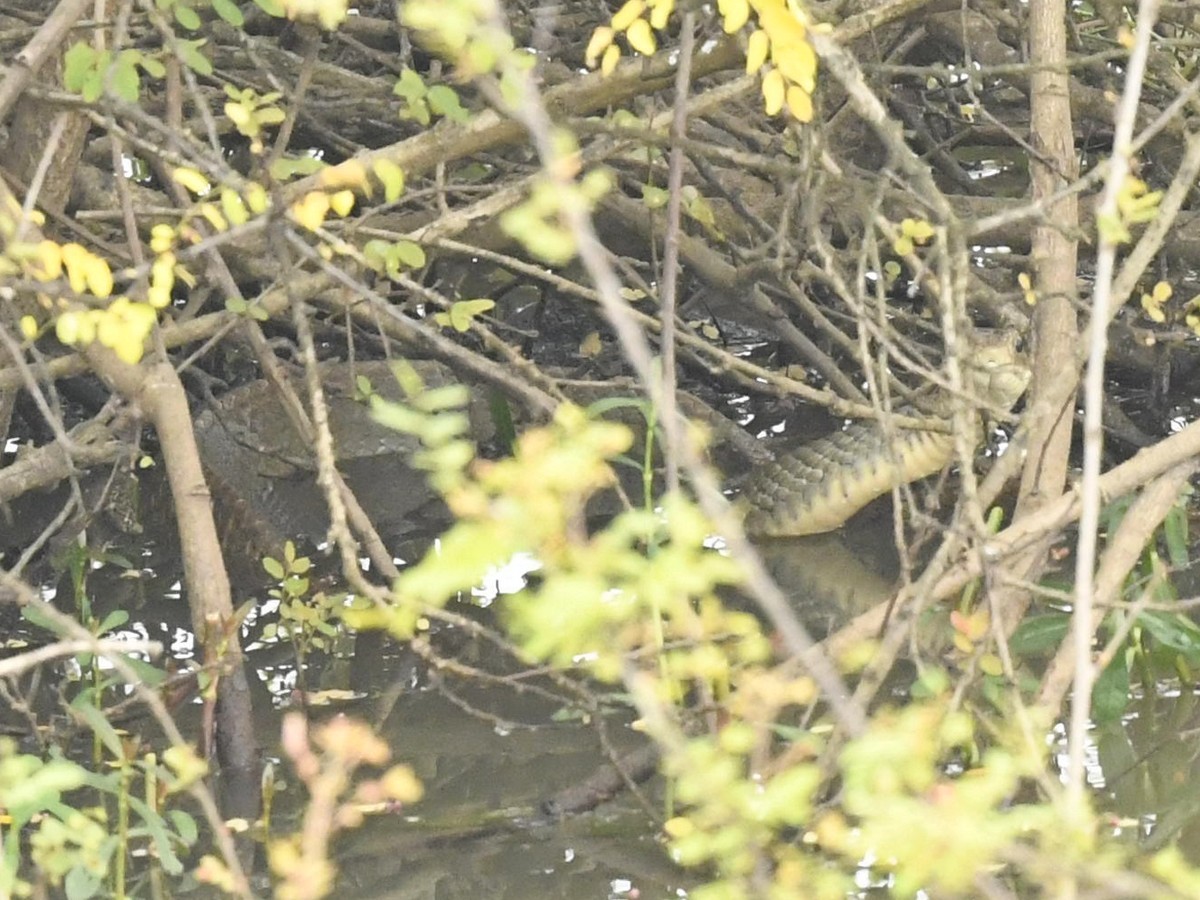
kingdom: Animalia
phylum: Chordata
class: Squamata
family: Colubridae
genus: Ptyas
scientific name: Ptyas mucosa
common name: Oriental ratsnake
